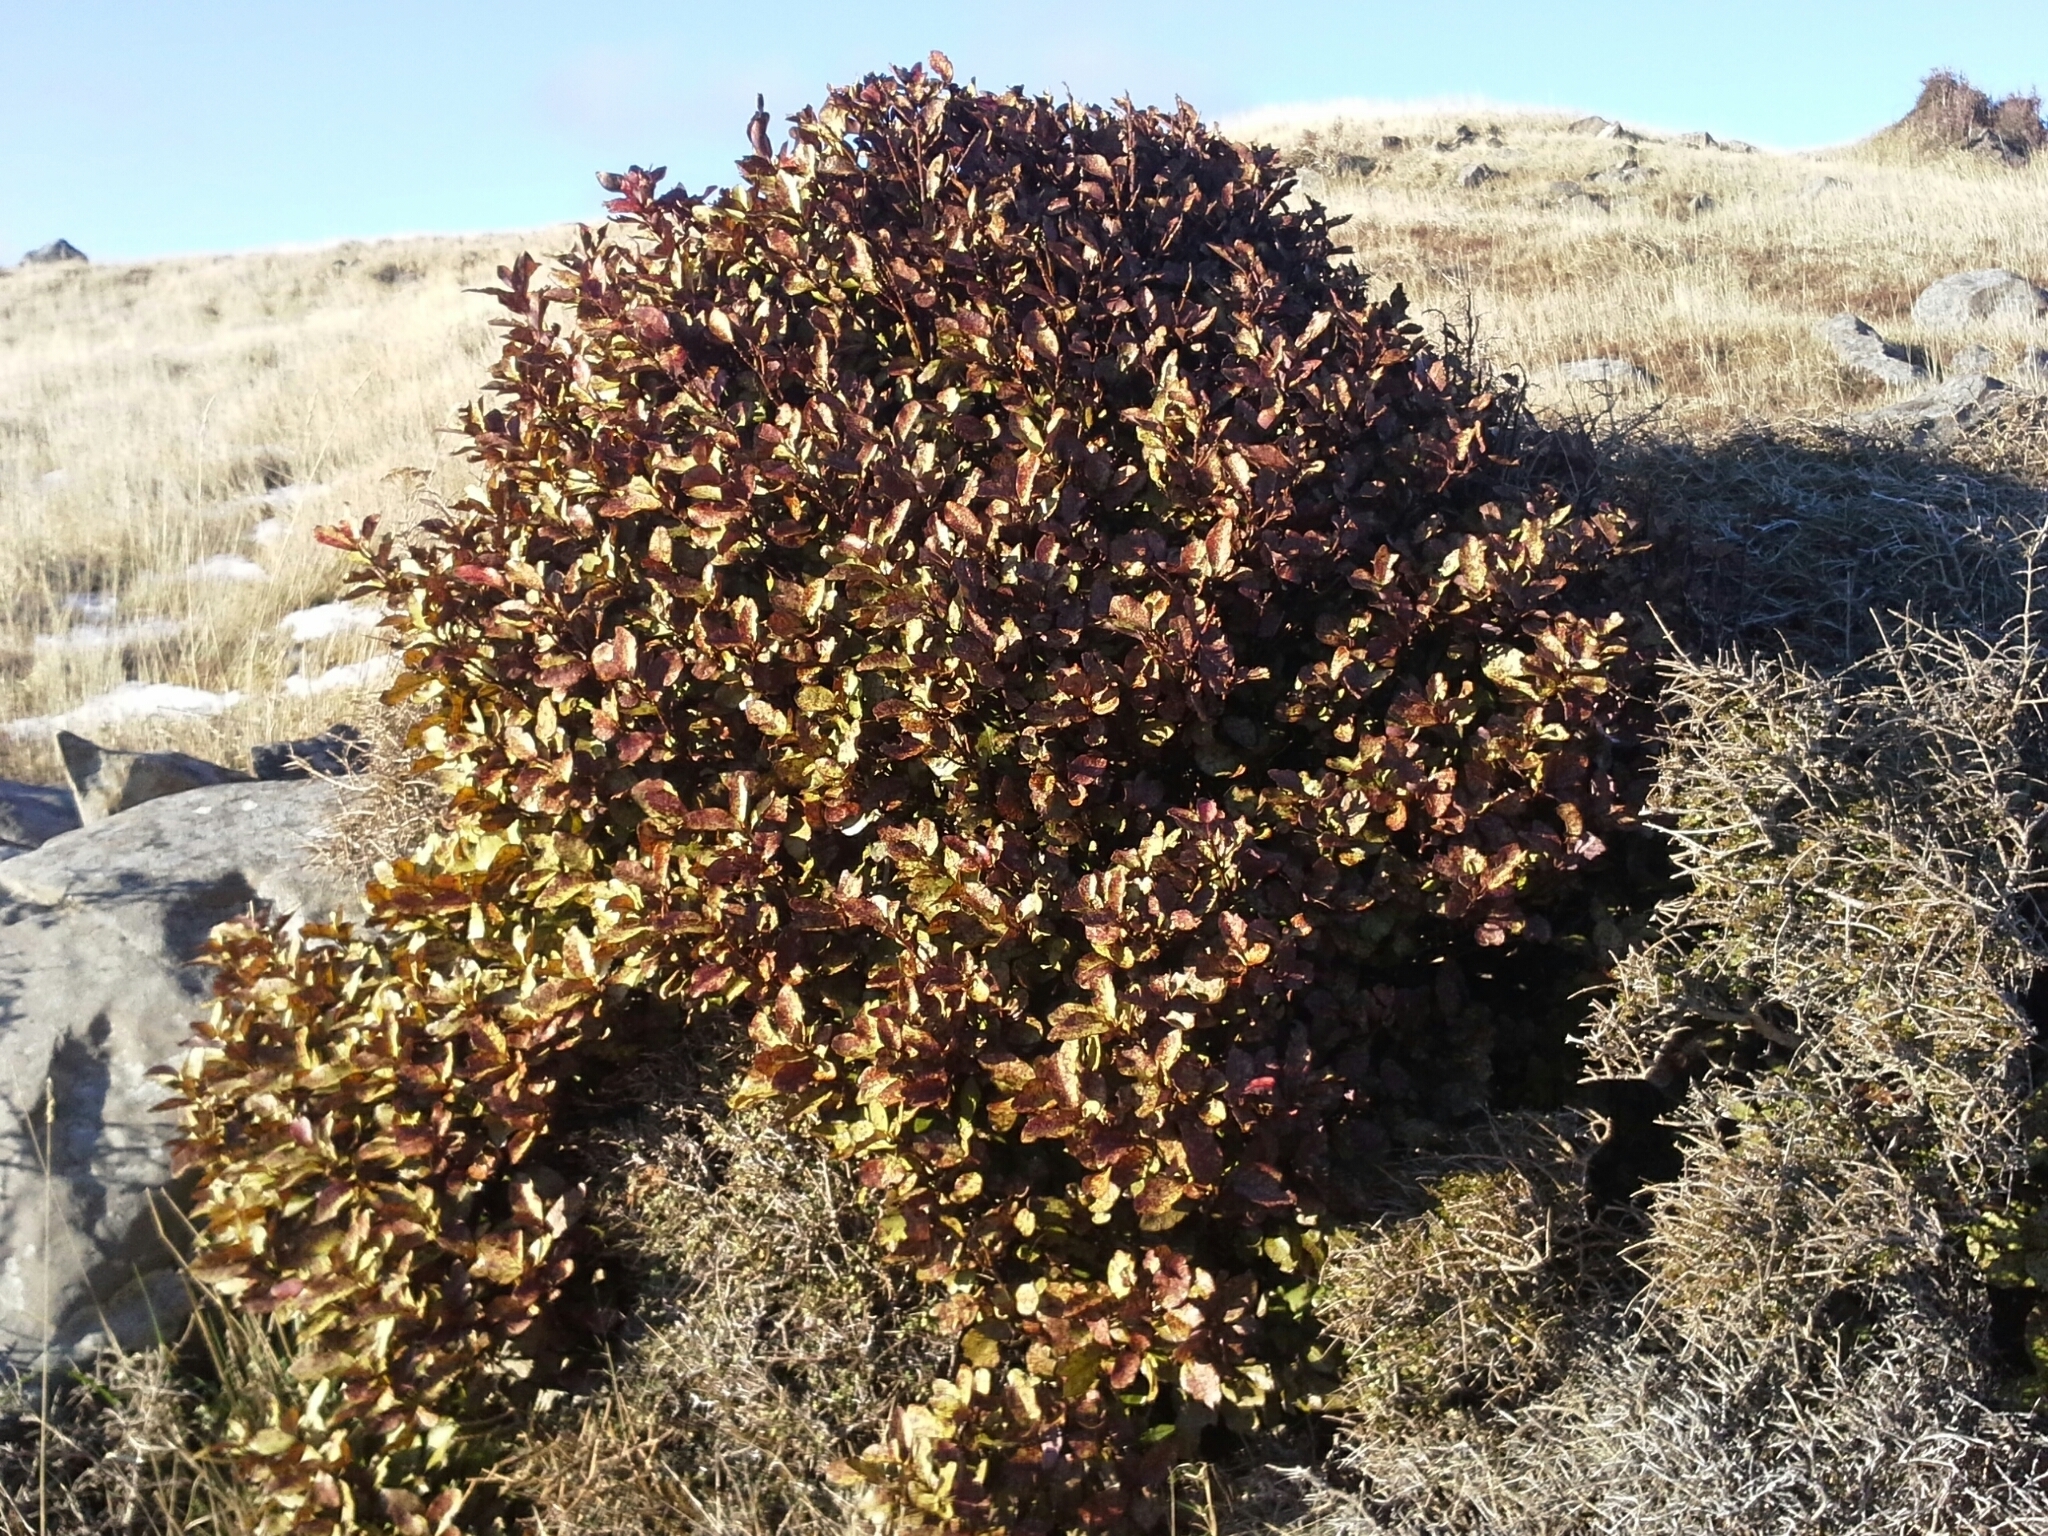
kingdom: Plantae
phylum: Tracheophyta
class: Magnoliopsida
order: Canellales
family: Winteraceae
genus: Pseudowintera
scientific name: Pseudowintera colorata
